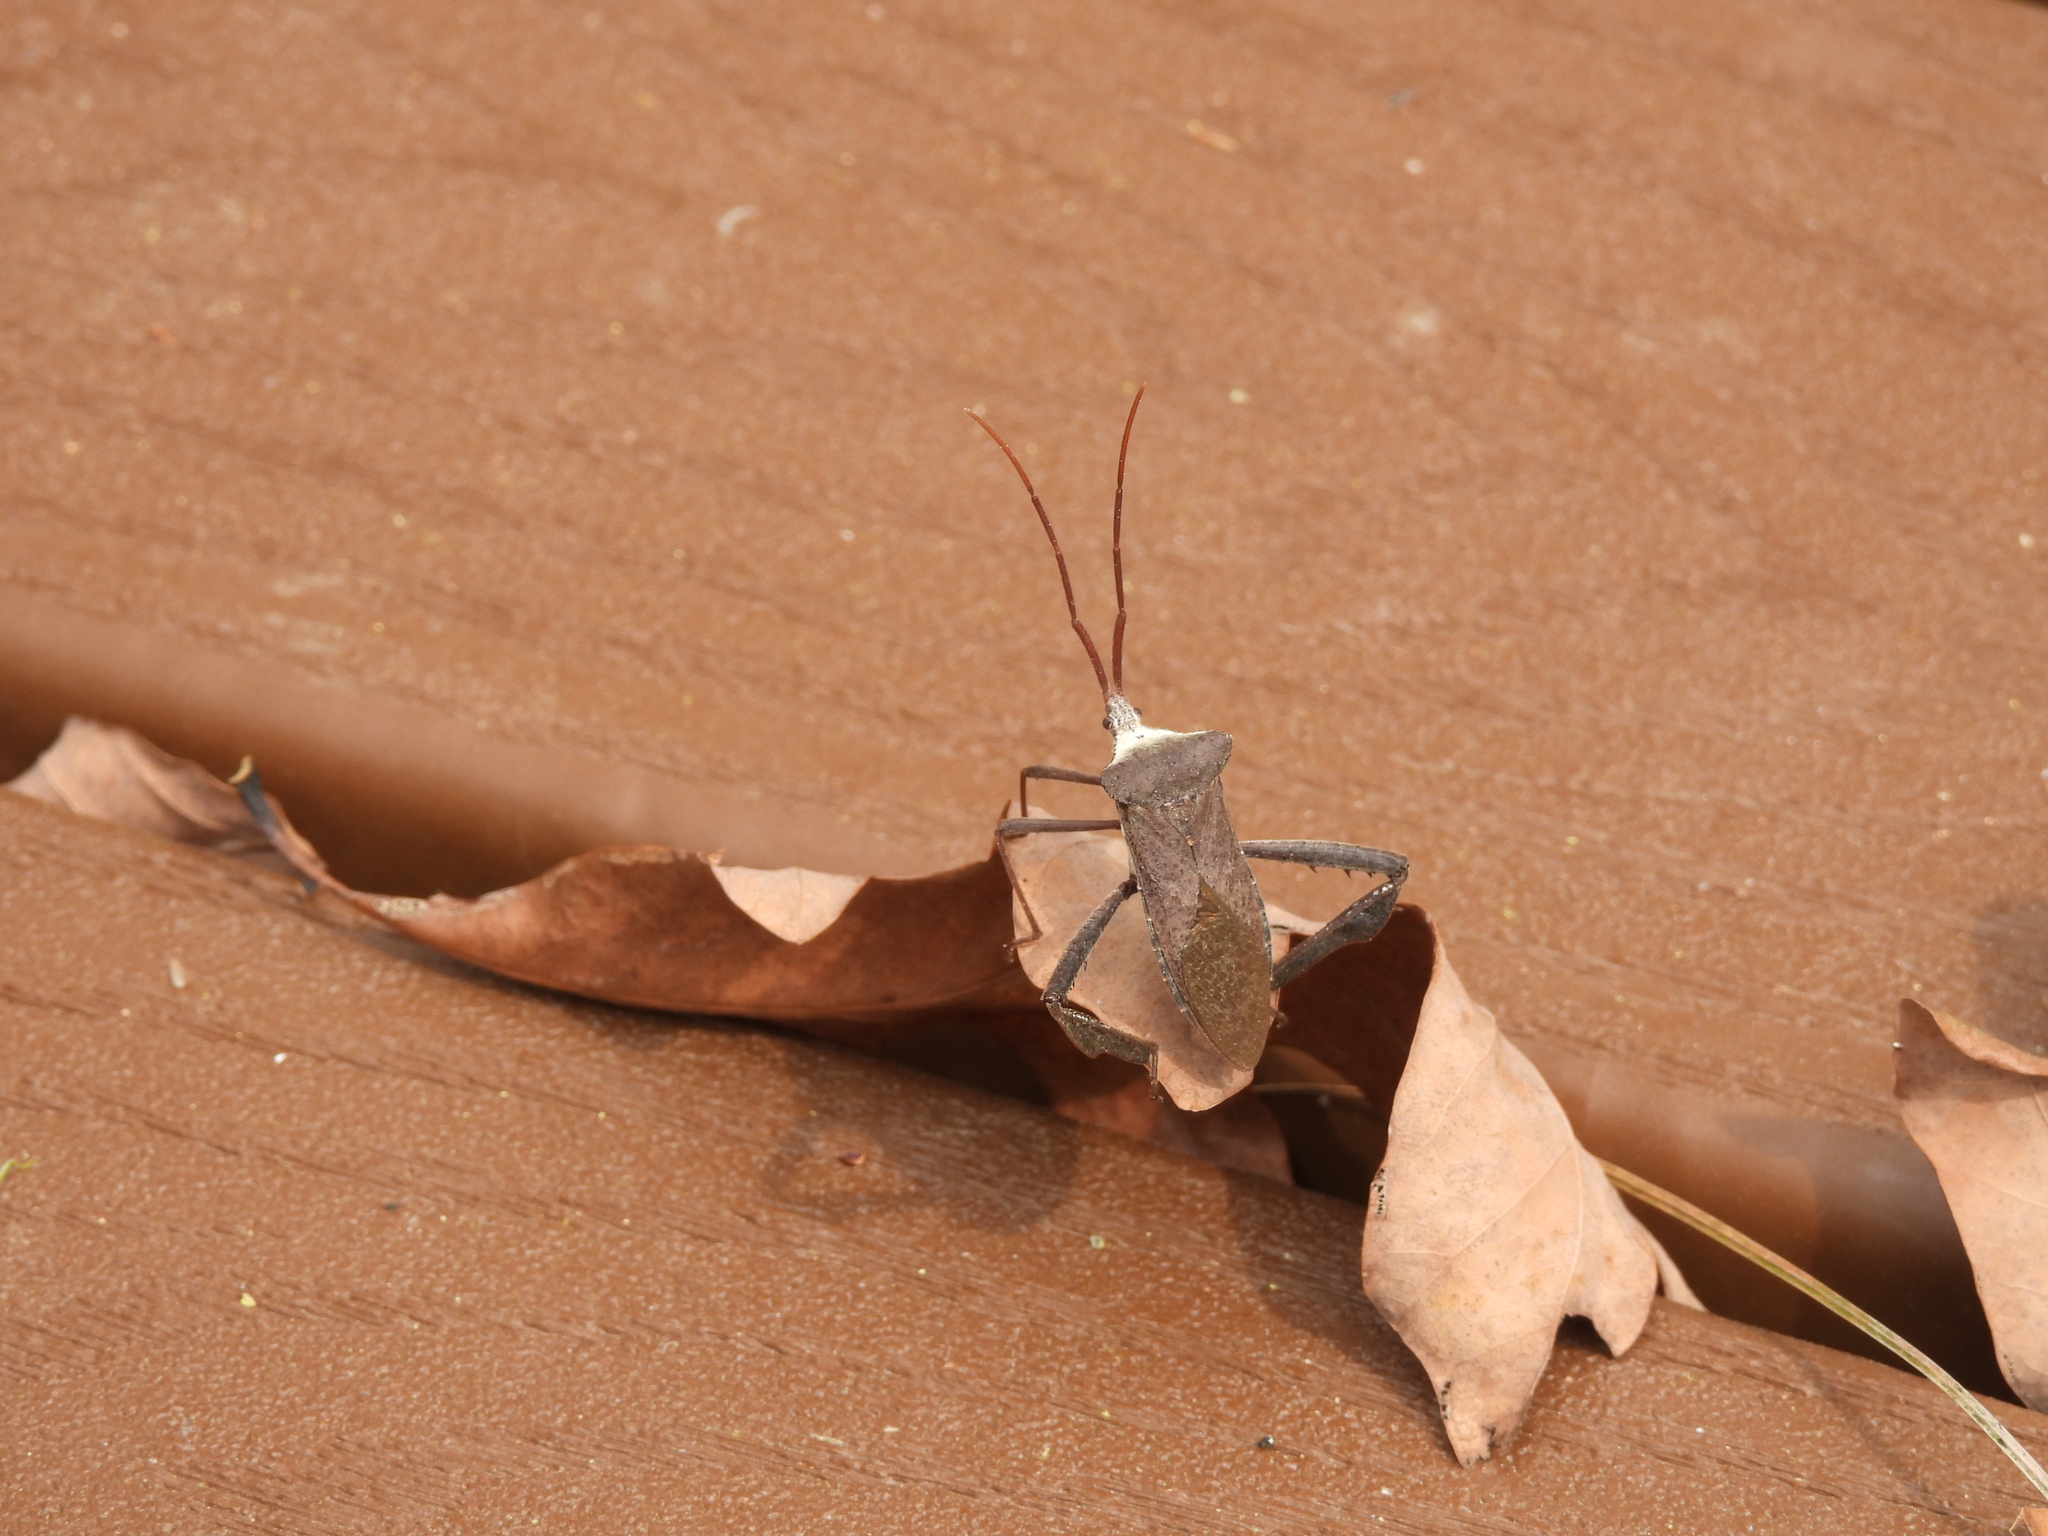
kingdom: Animalia
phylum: Arthropoda
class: Insecta
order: Hemiptera
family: Coreidae
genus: Acanthocephala
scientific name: Acanthocephala declivis
